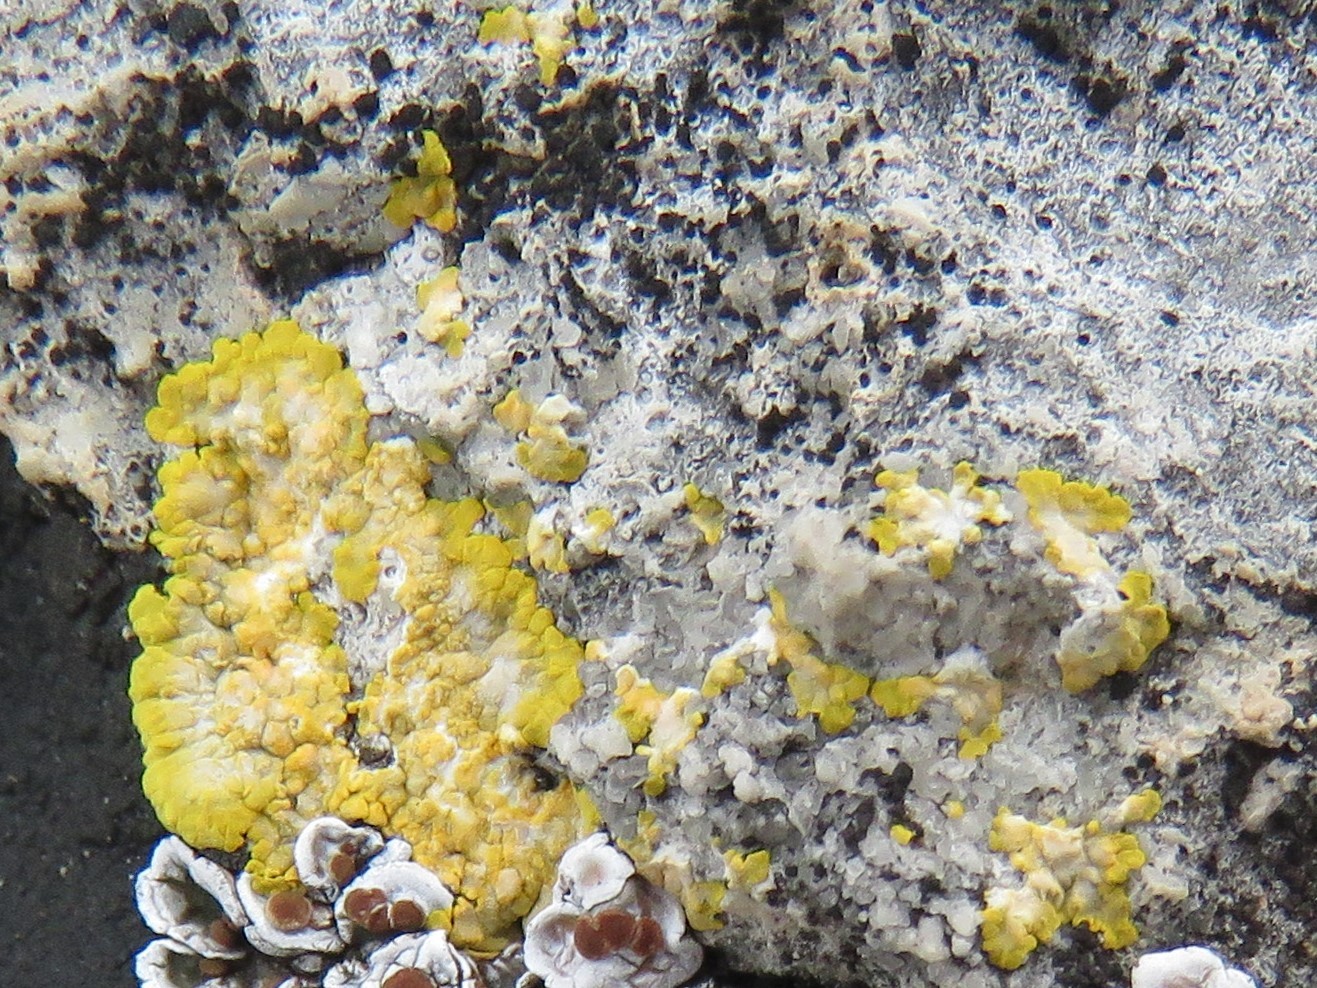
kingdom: Fungi
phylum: Ascomycota
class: Lecanoromycetes
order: Teloschistales
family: Teloschistaceae
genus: Caloplaca
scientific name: Caloplaca eugyra
